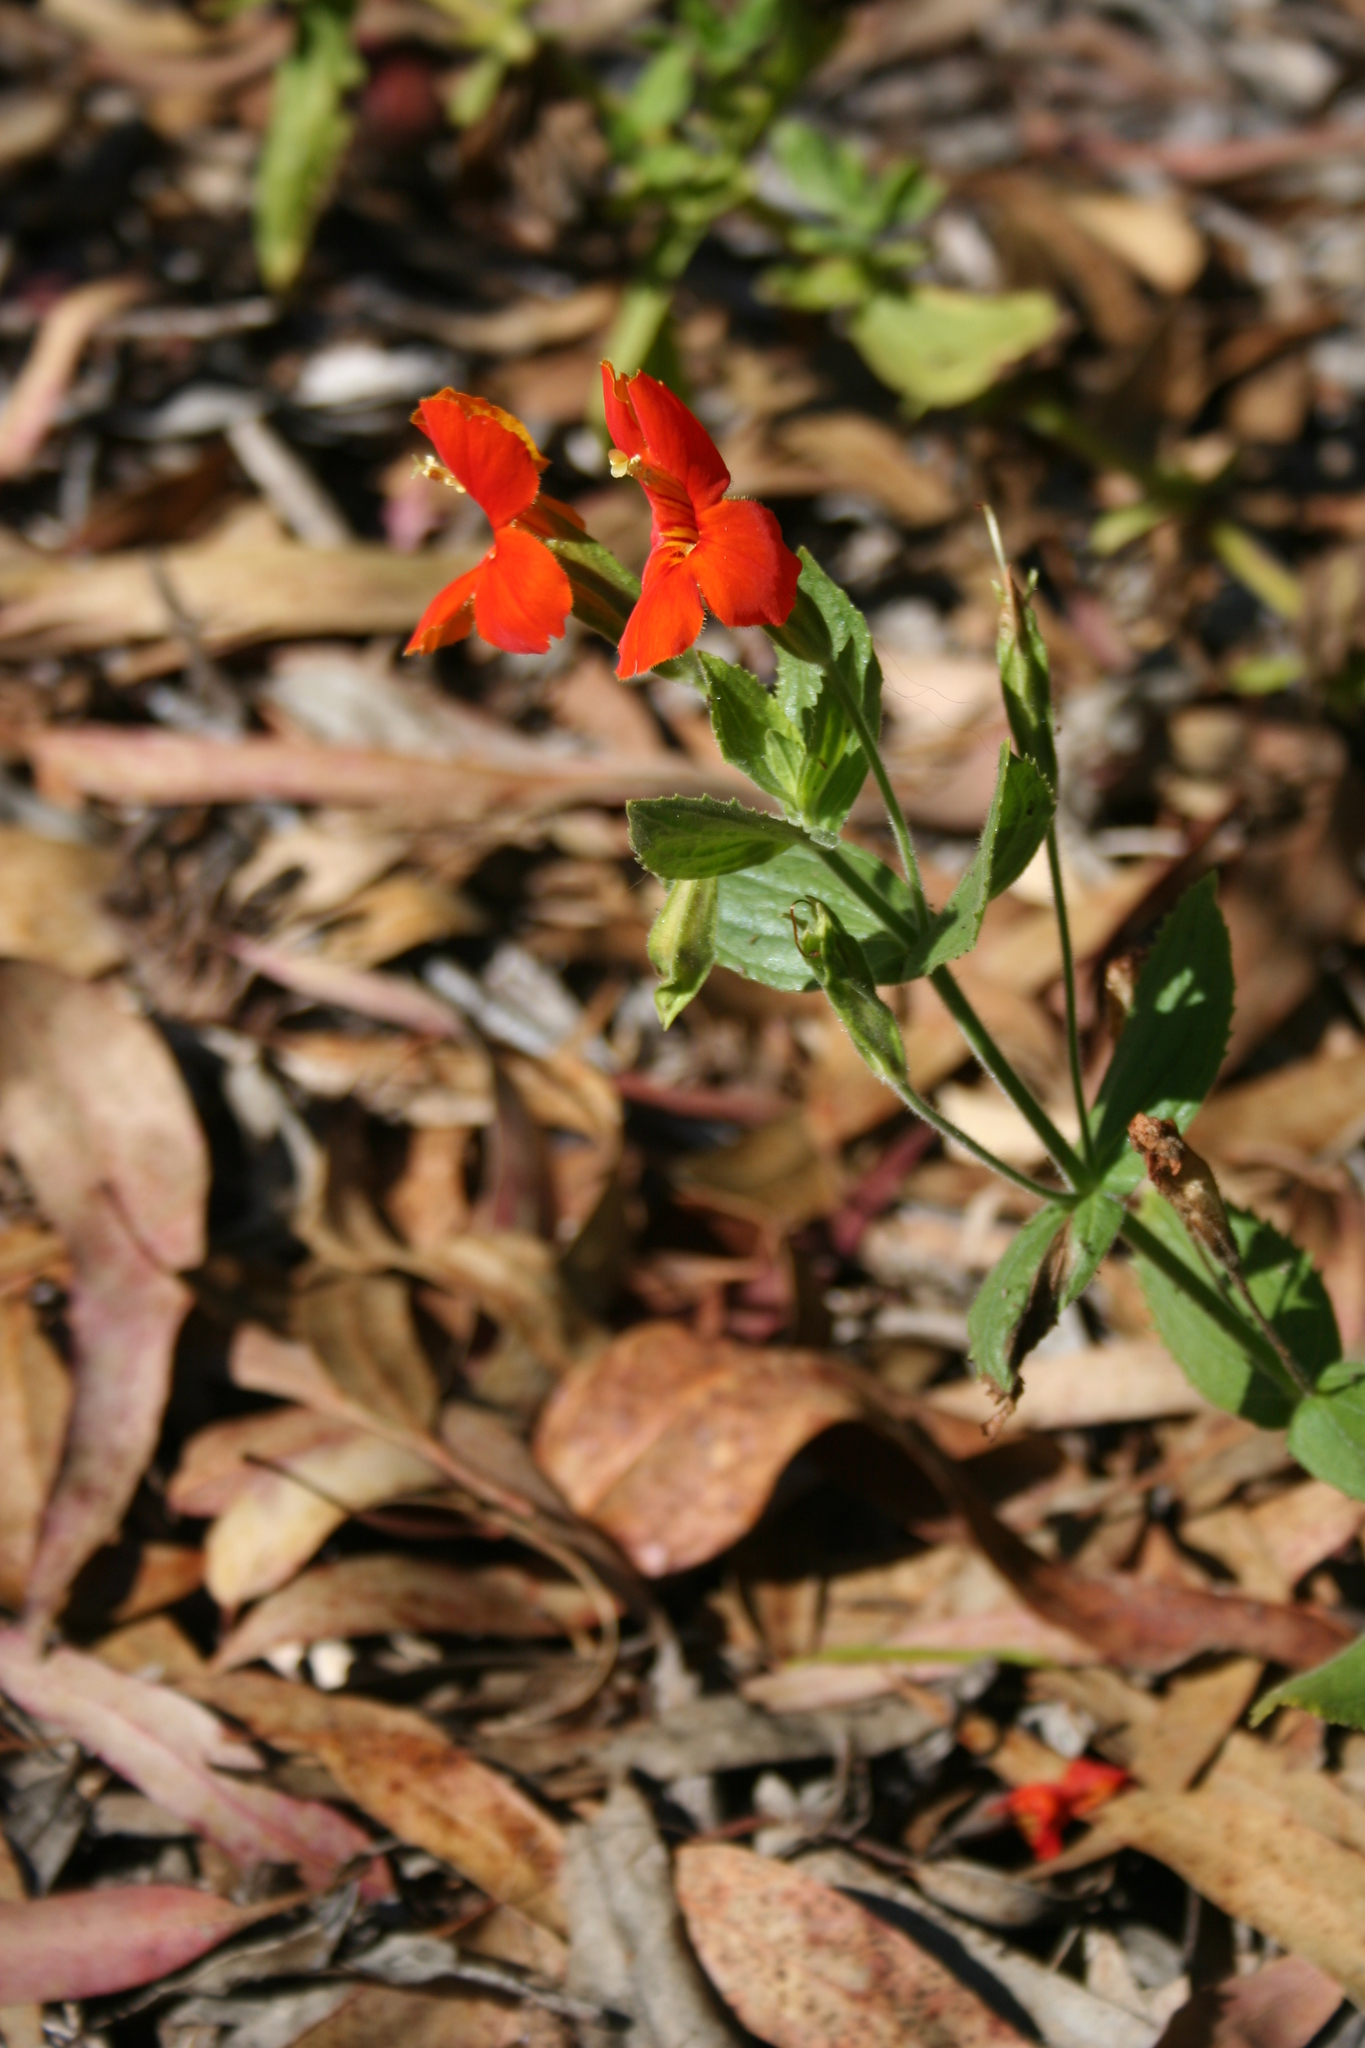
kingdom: Plantae
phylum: Tracheophyta
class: Magnoliopsida
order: Lamiales
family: Phrymaceae
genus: Erythranthe
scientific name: Erythranthe cardinalis
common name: Scarlet monkey-flower
